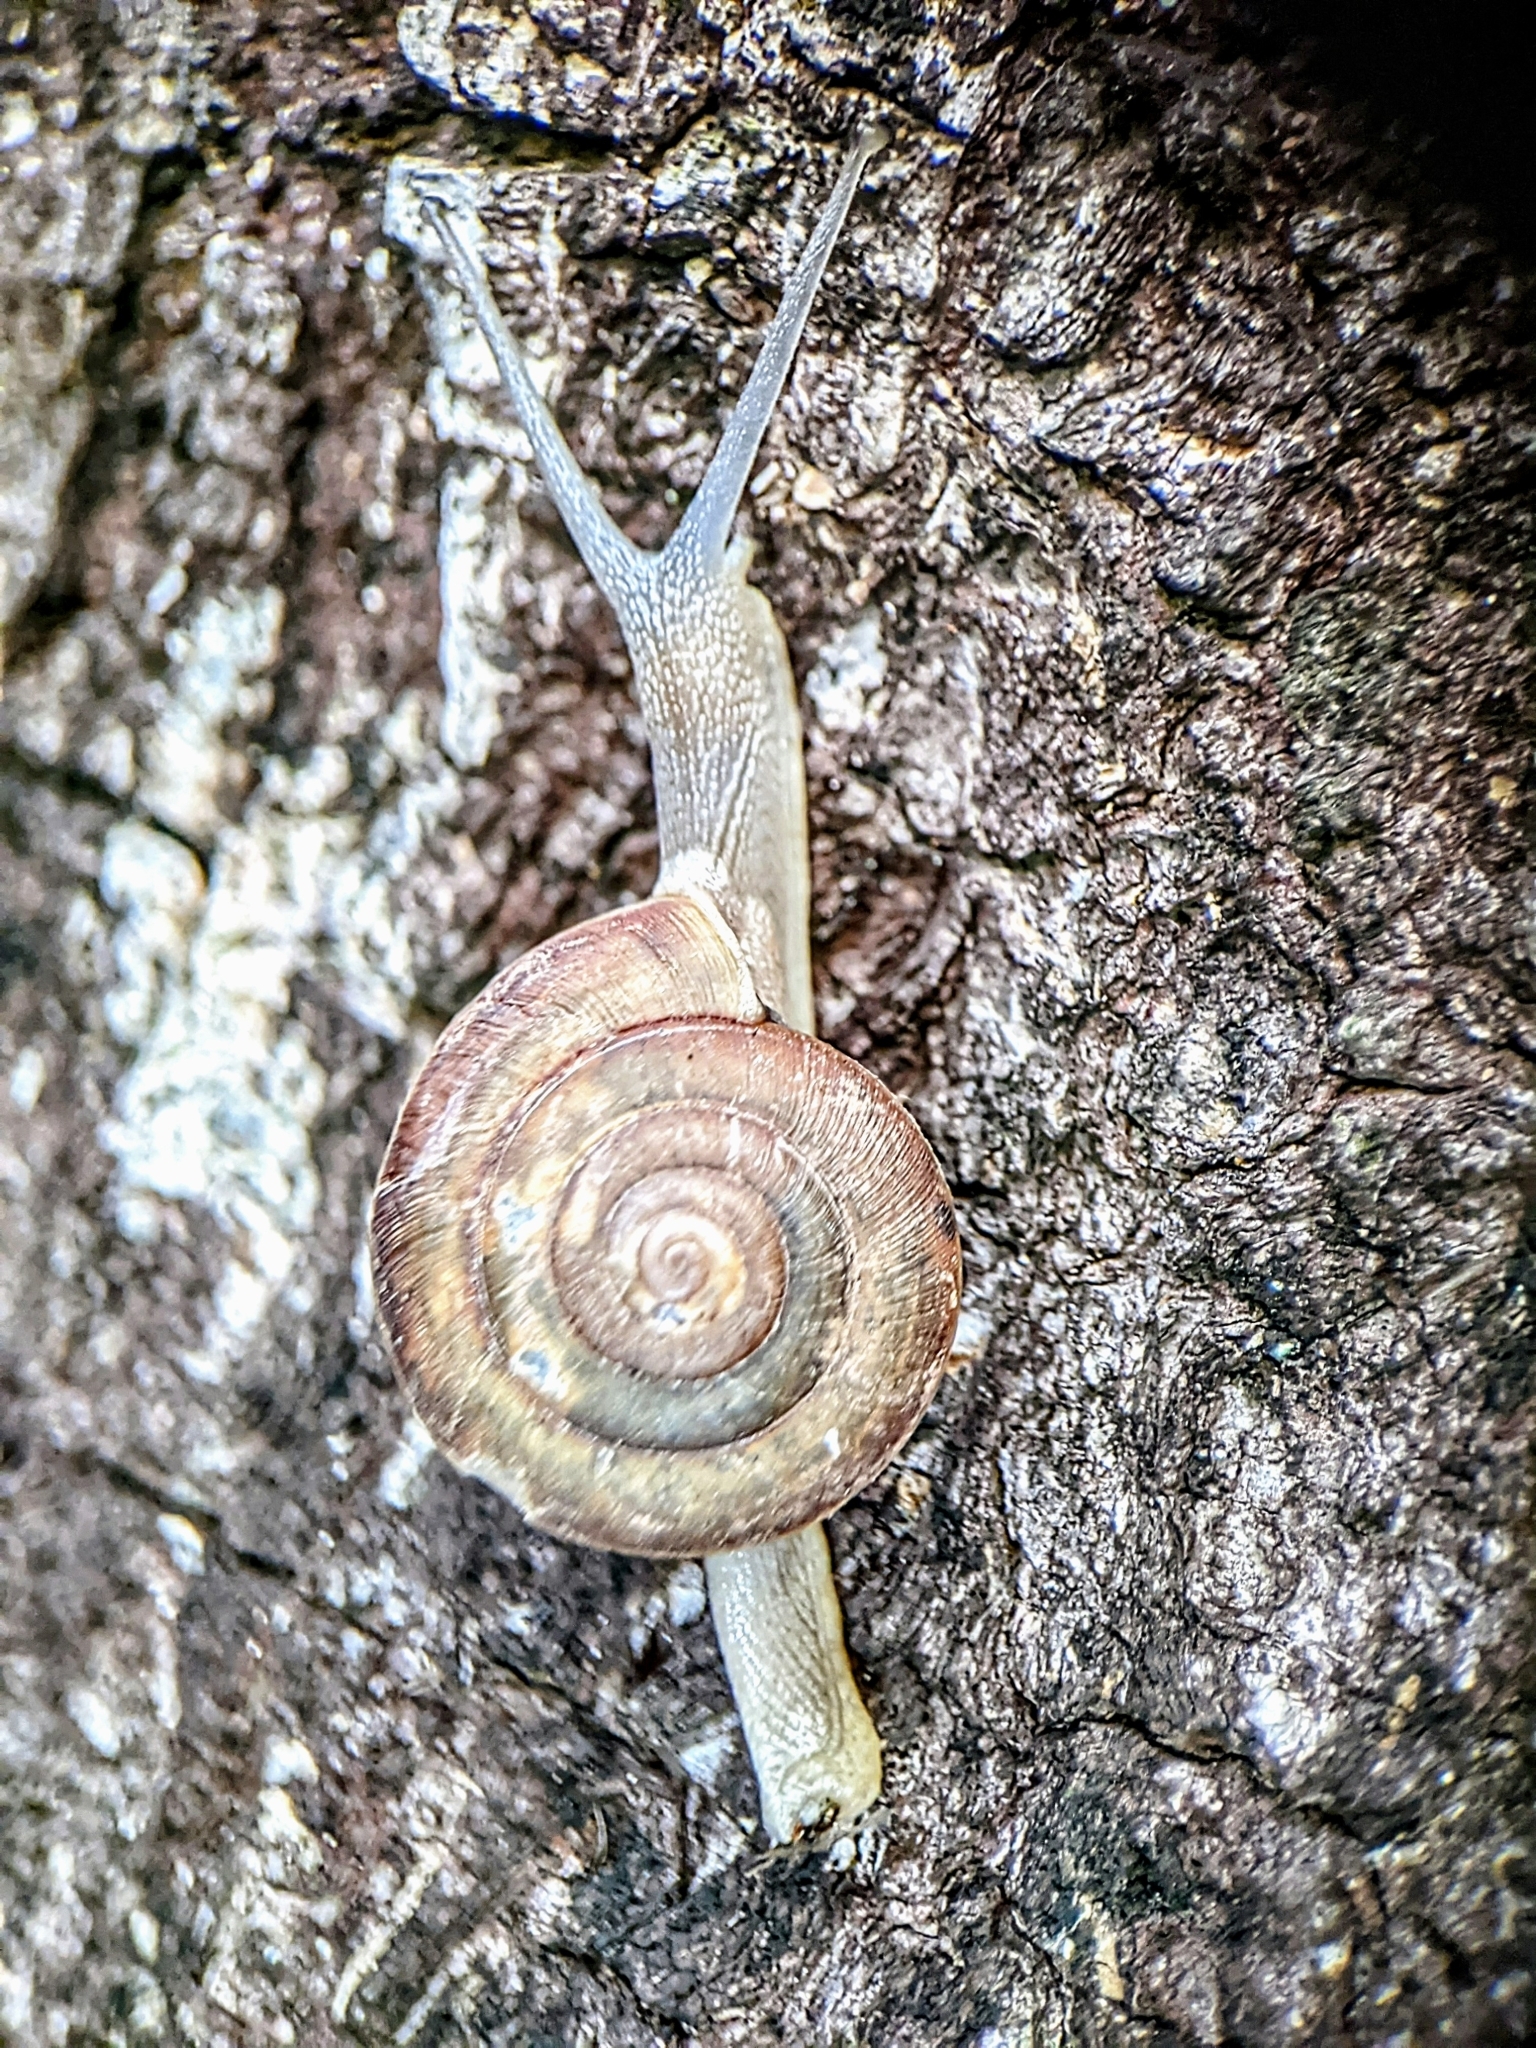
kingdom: Animalia
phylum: Mollusca
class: Gastropoda
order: Stylommatophora
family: Ariophantidae
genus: Sarika
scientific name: Sarika siamensis
